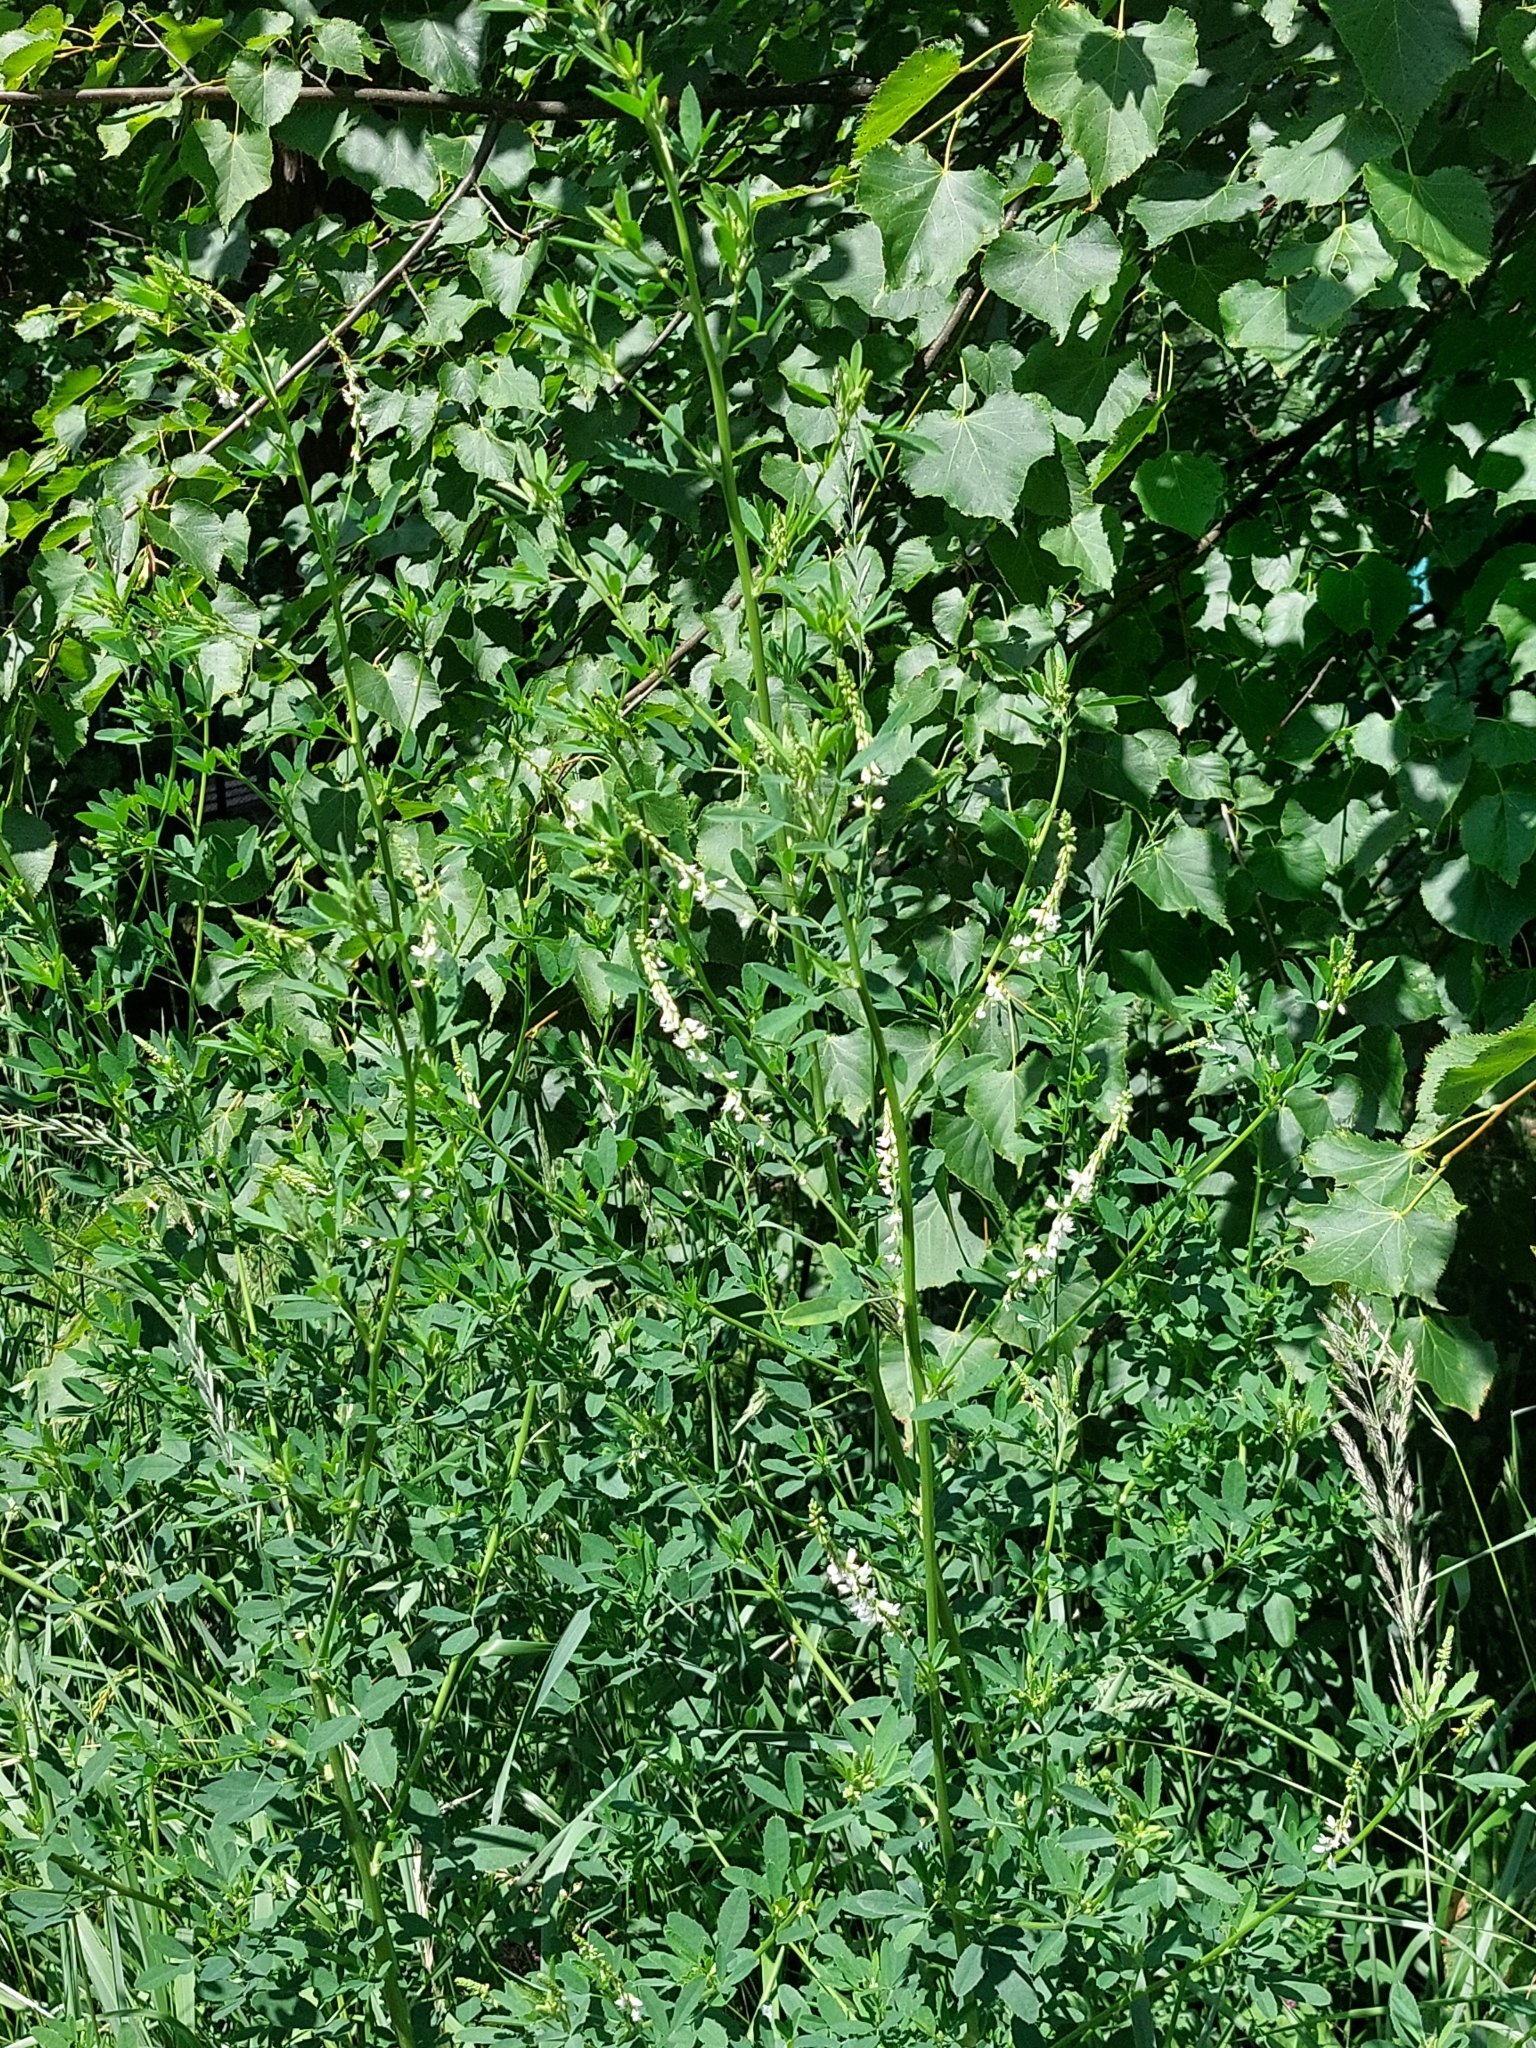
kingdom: Plantae
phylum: Tracheophyta
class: Magnoliopsida
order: Fabales
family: Fabaceae
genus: Melilotus
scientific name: Melilotus albus
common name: White melilot
